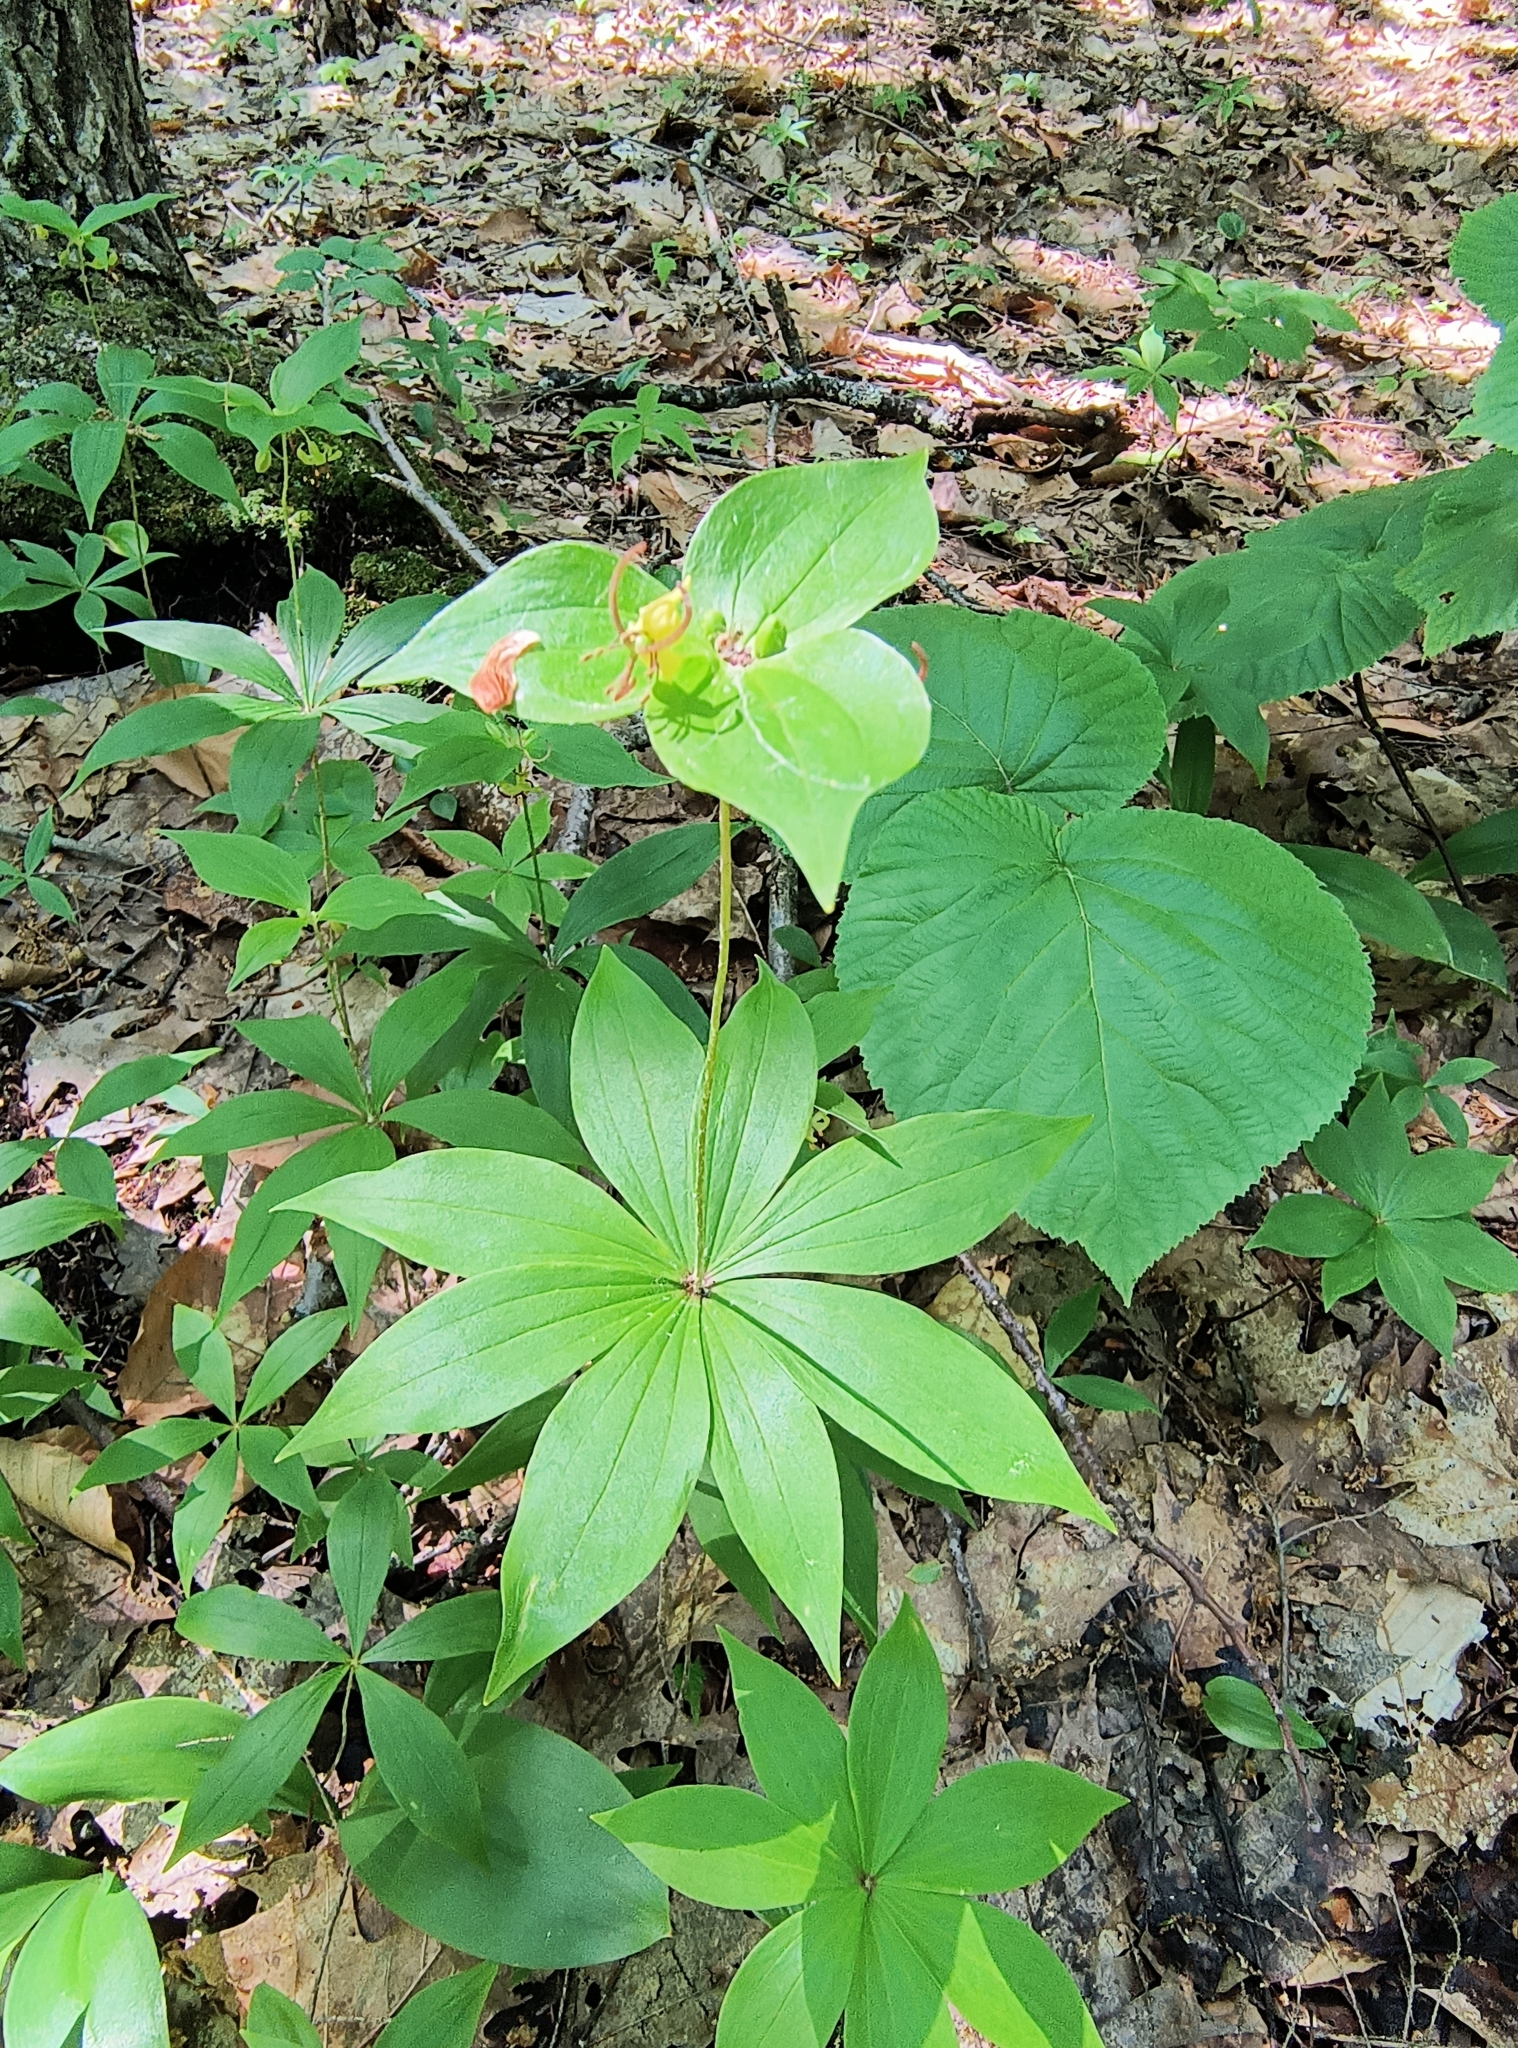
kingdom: Plantae
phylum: Tracheophyta
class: Liliopsida
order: Liliales
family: Liliaceae
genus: Medeola
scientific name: Medeola virginiana
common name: Indian cucumber-root
